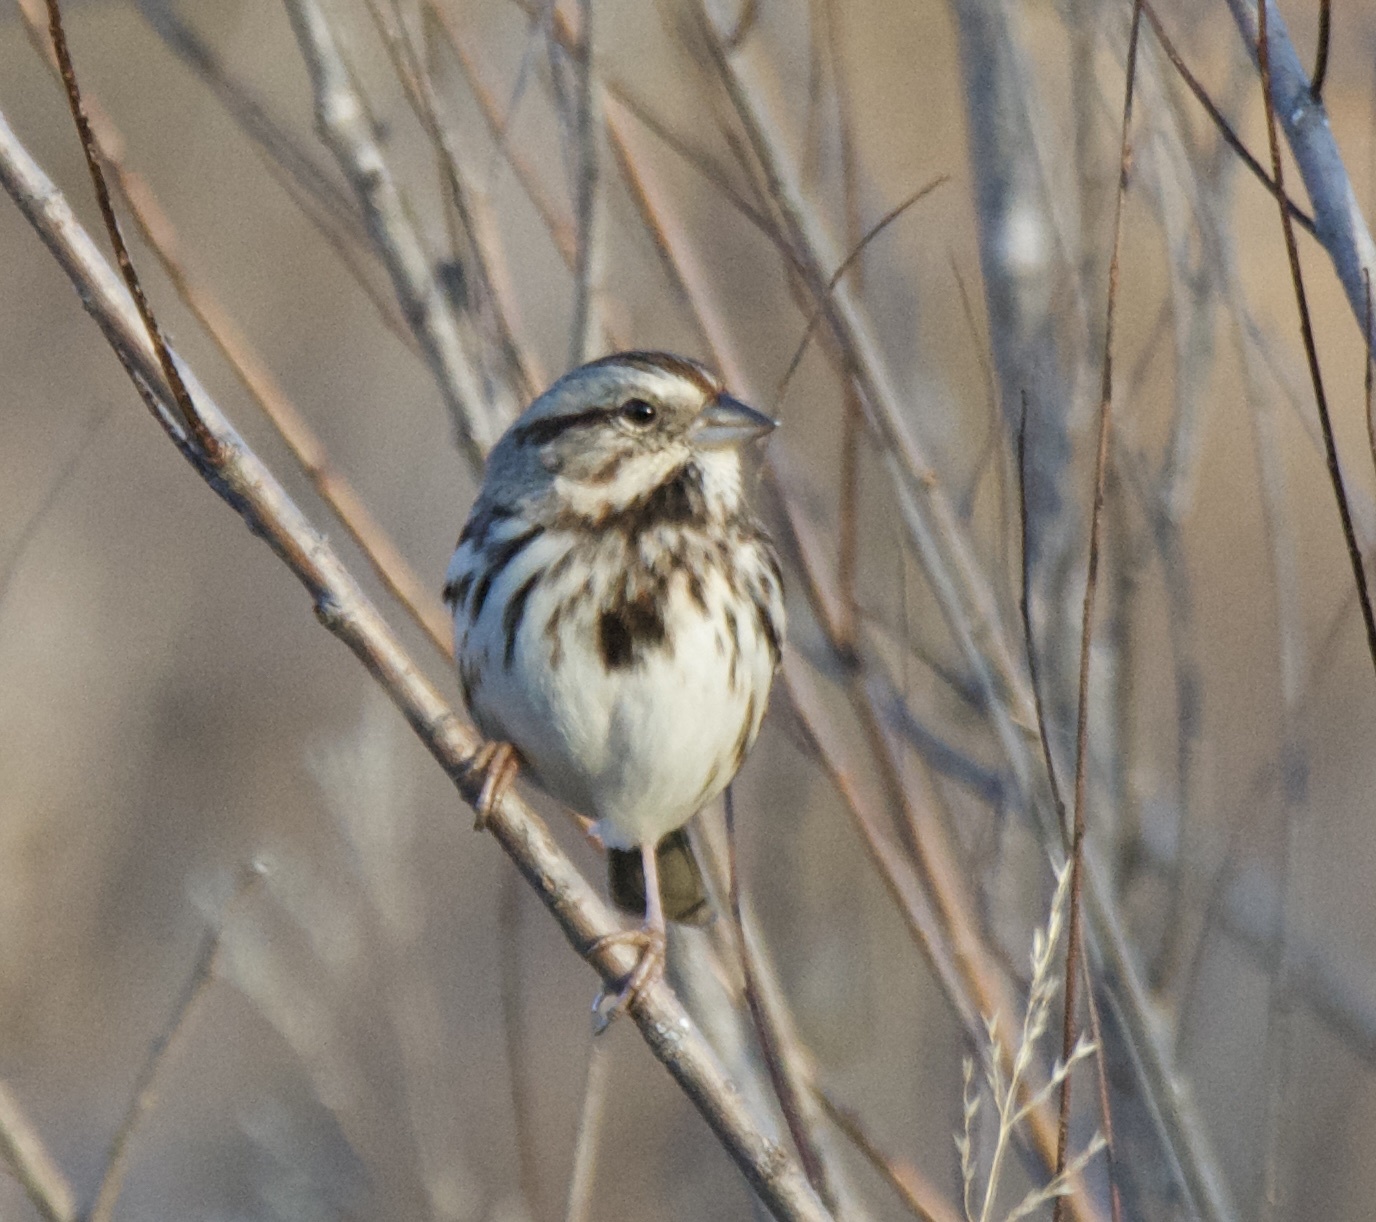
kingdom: Animalia
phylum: Chordata
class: Aves
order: Passeriformes
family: Passerellidae
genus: Melospiza
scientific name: Melospiza melodia
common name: Song sparrow
